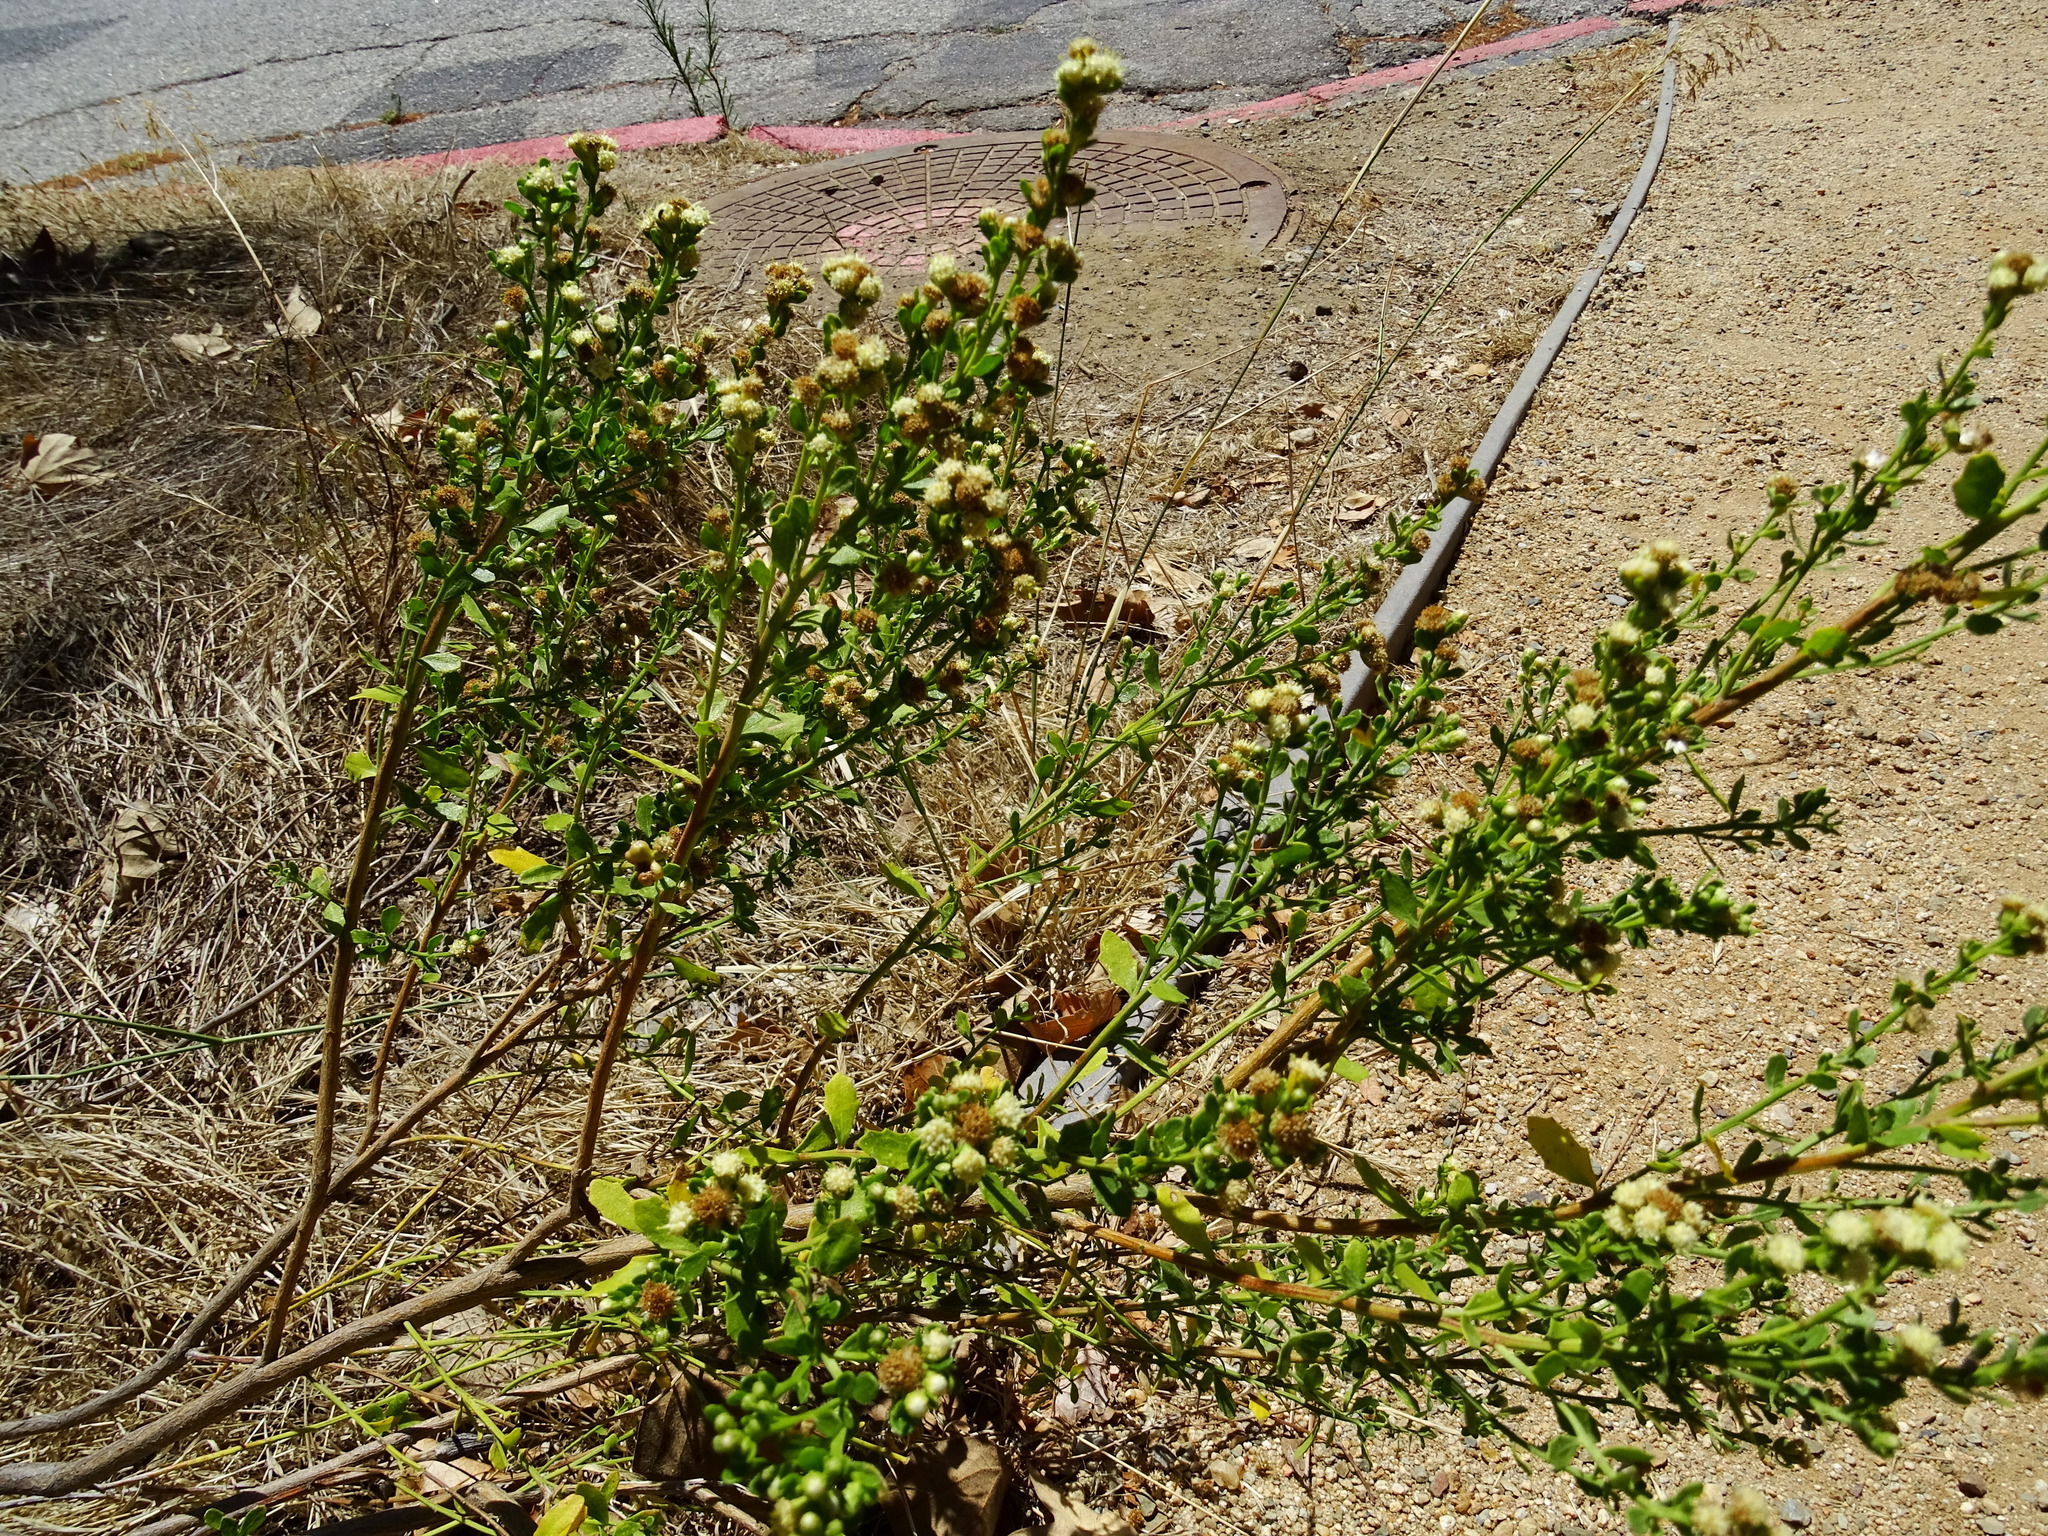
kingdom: Plantae
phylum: Tracheophyta
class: Magnoliopsida
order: Asterales
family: Asteraceae
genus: Baccharis
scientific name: Baccharis pilularis
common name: Coyotebrush
